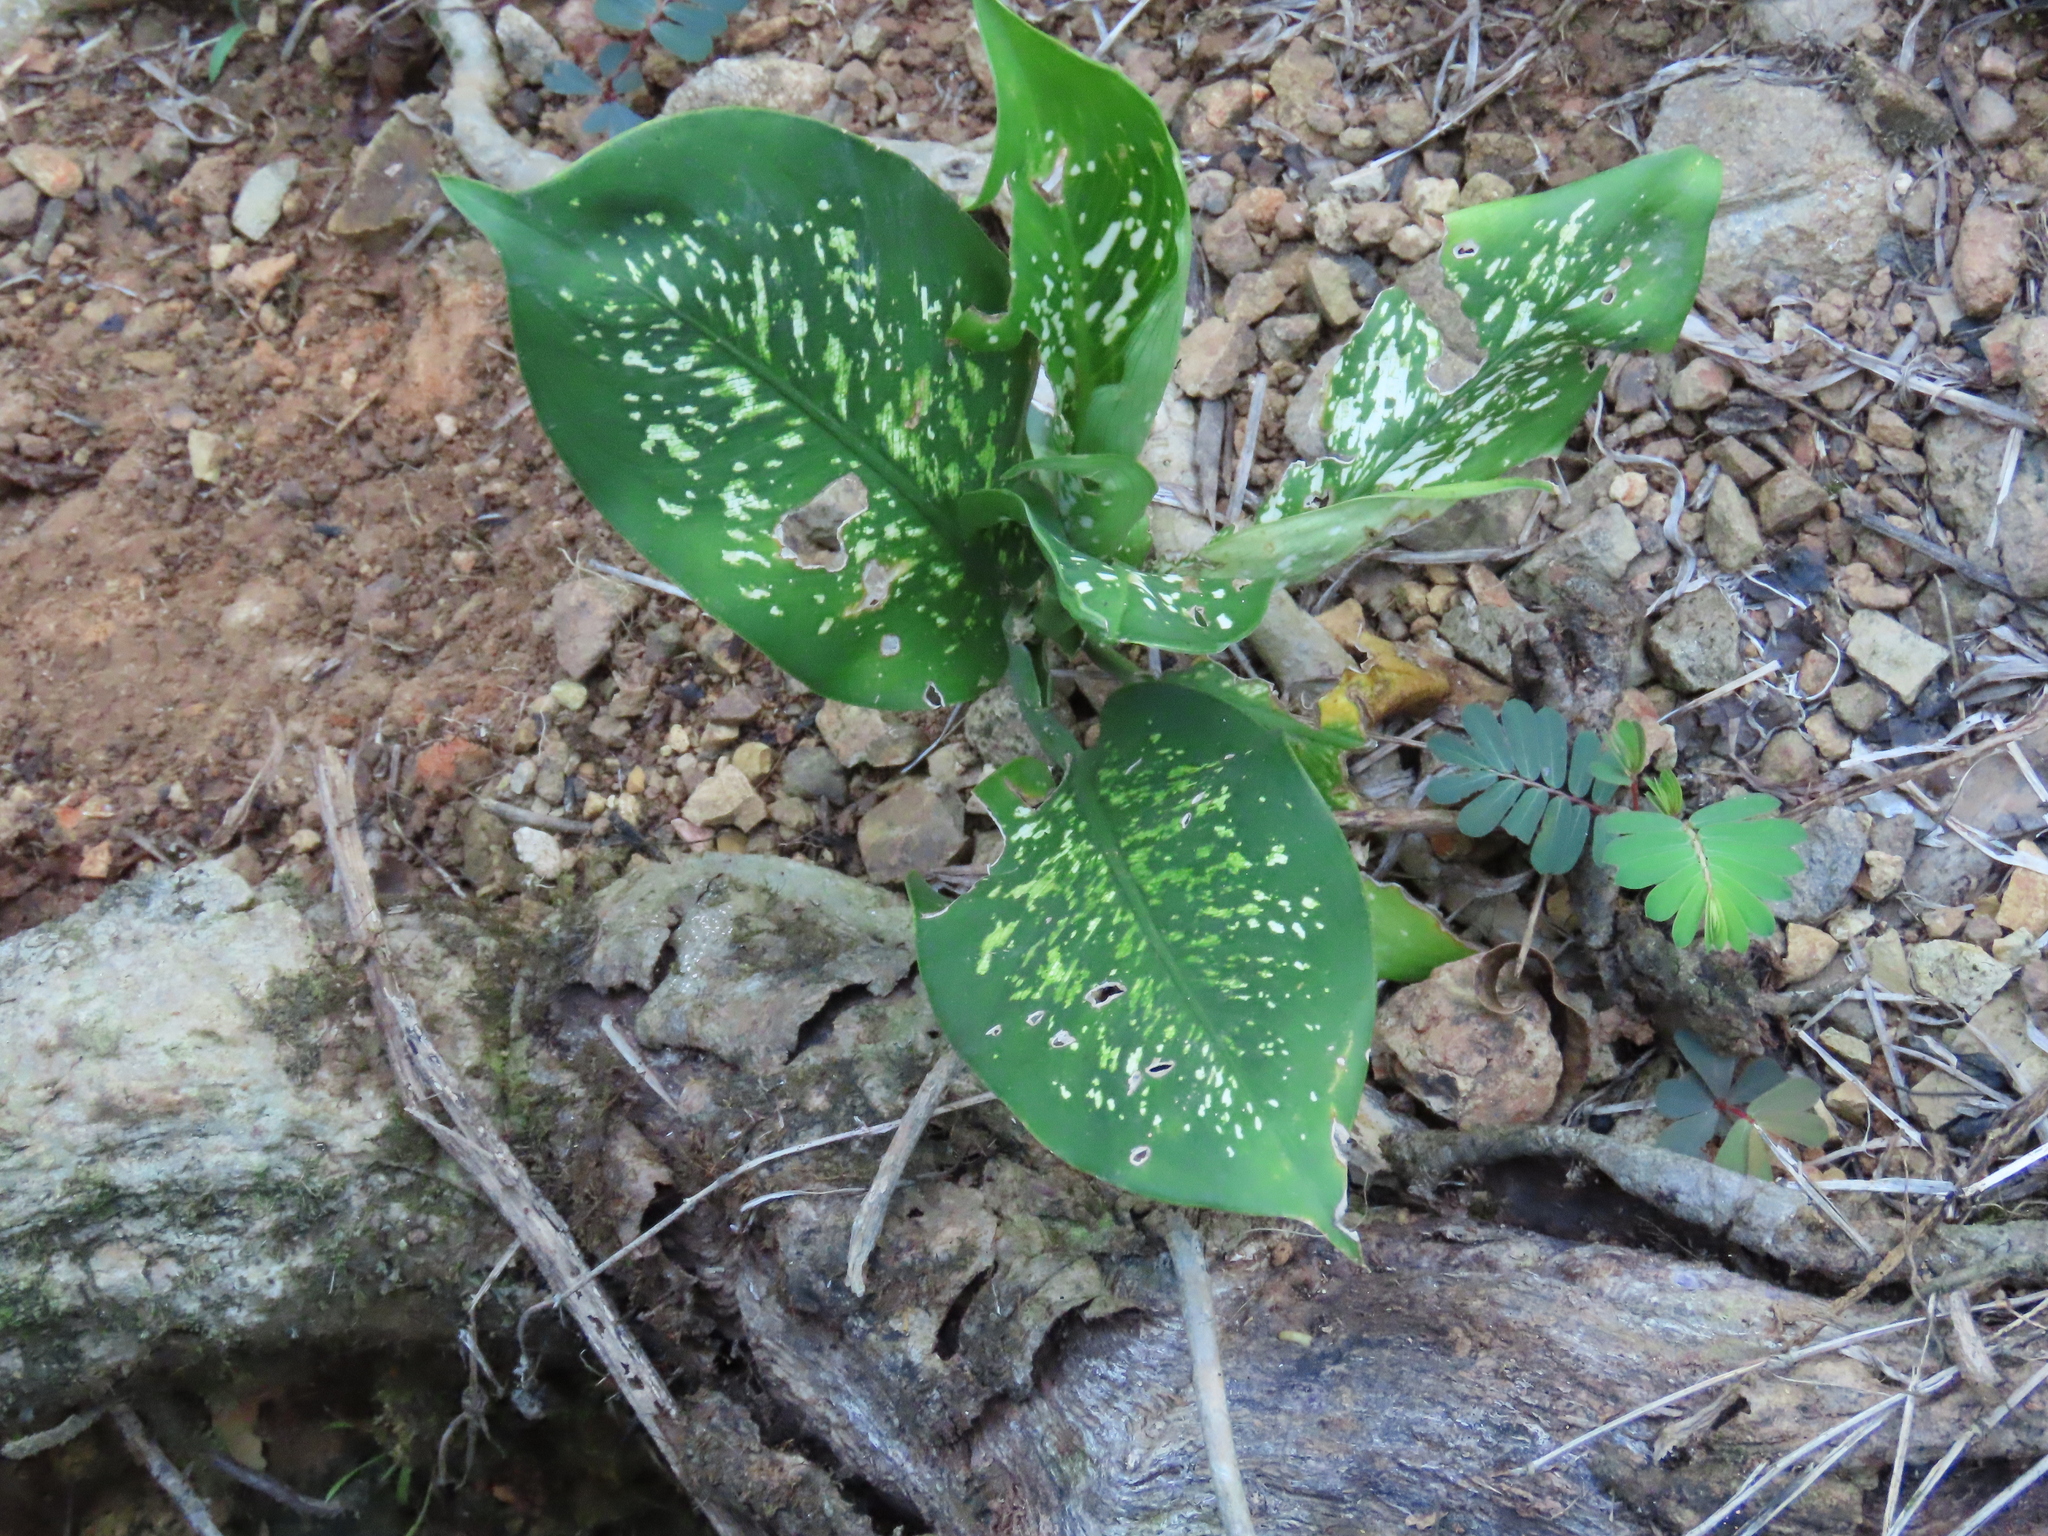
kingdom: Plantae
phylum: Tracheophyta
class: Liliopsida
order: Alismatales
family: Araceae
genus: Dieffenbachia
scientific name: Dieffenbachia seguine
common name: Dumbcane
